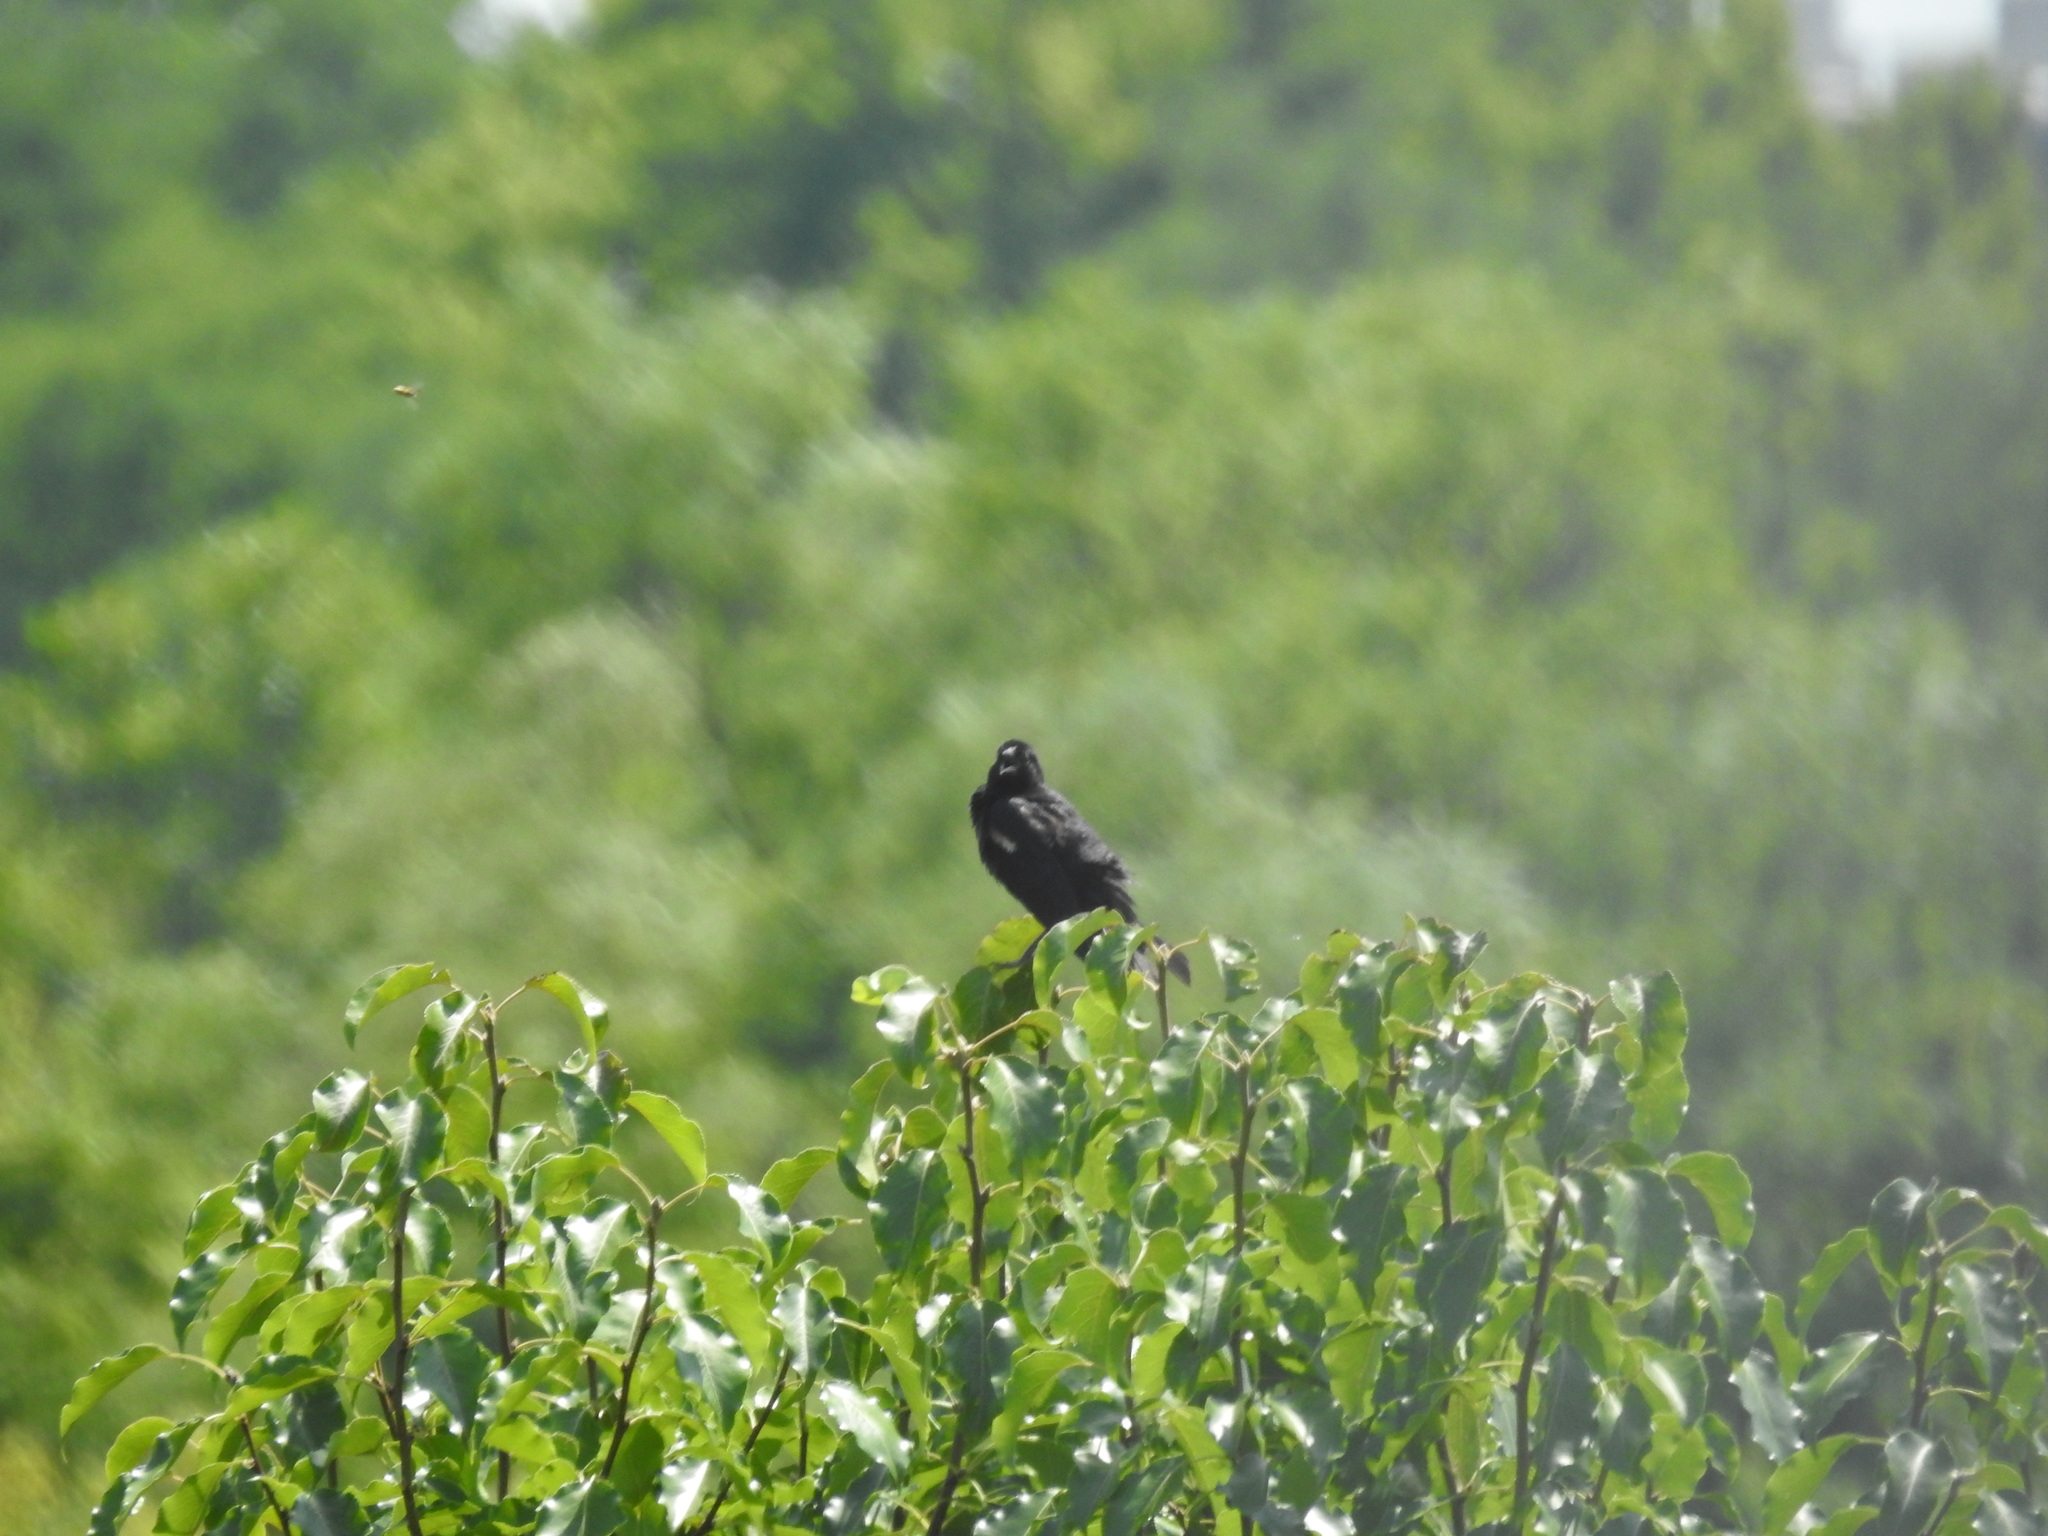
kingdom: Animalia
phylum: Chordata
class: Aves
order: Passeriformes
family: Icteridae
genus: Agelaius
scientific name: Agelaius phoeniceus
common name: Red-winged blackbird
